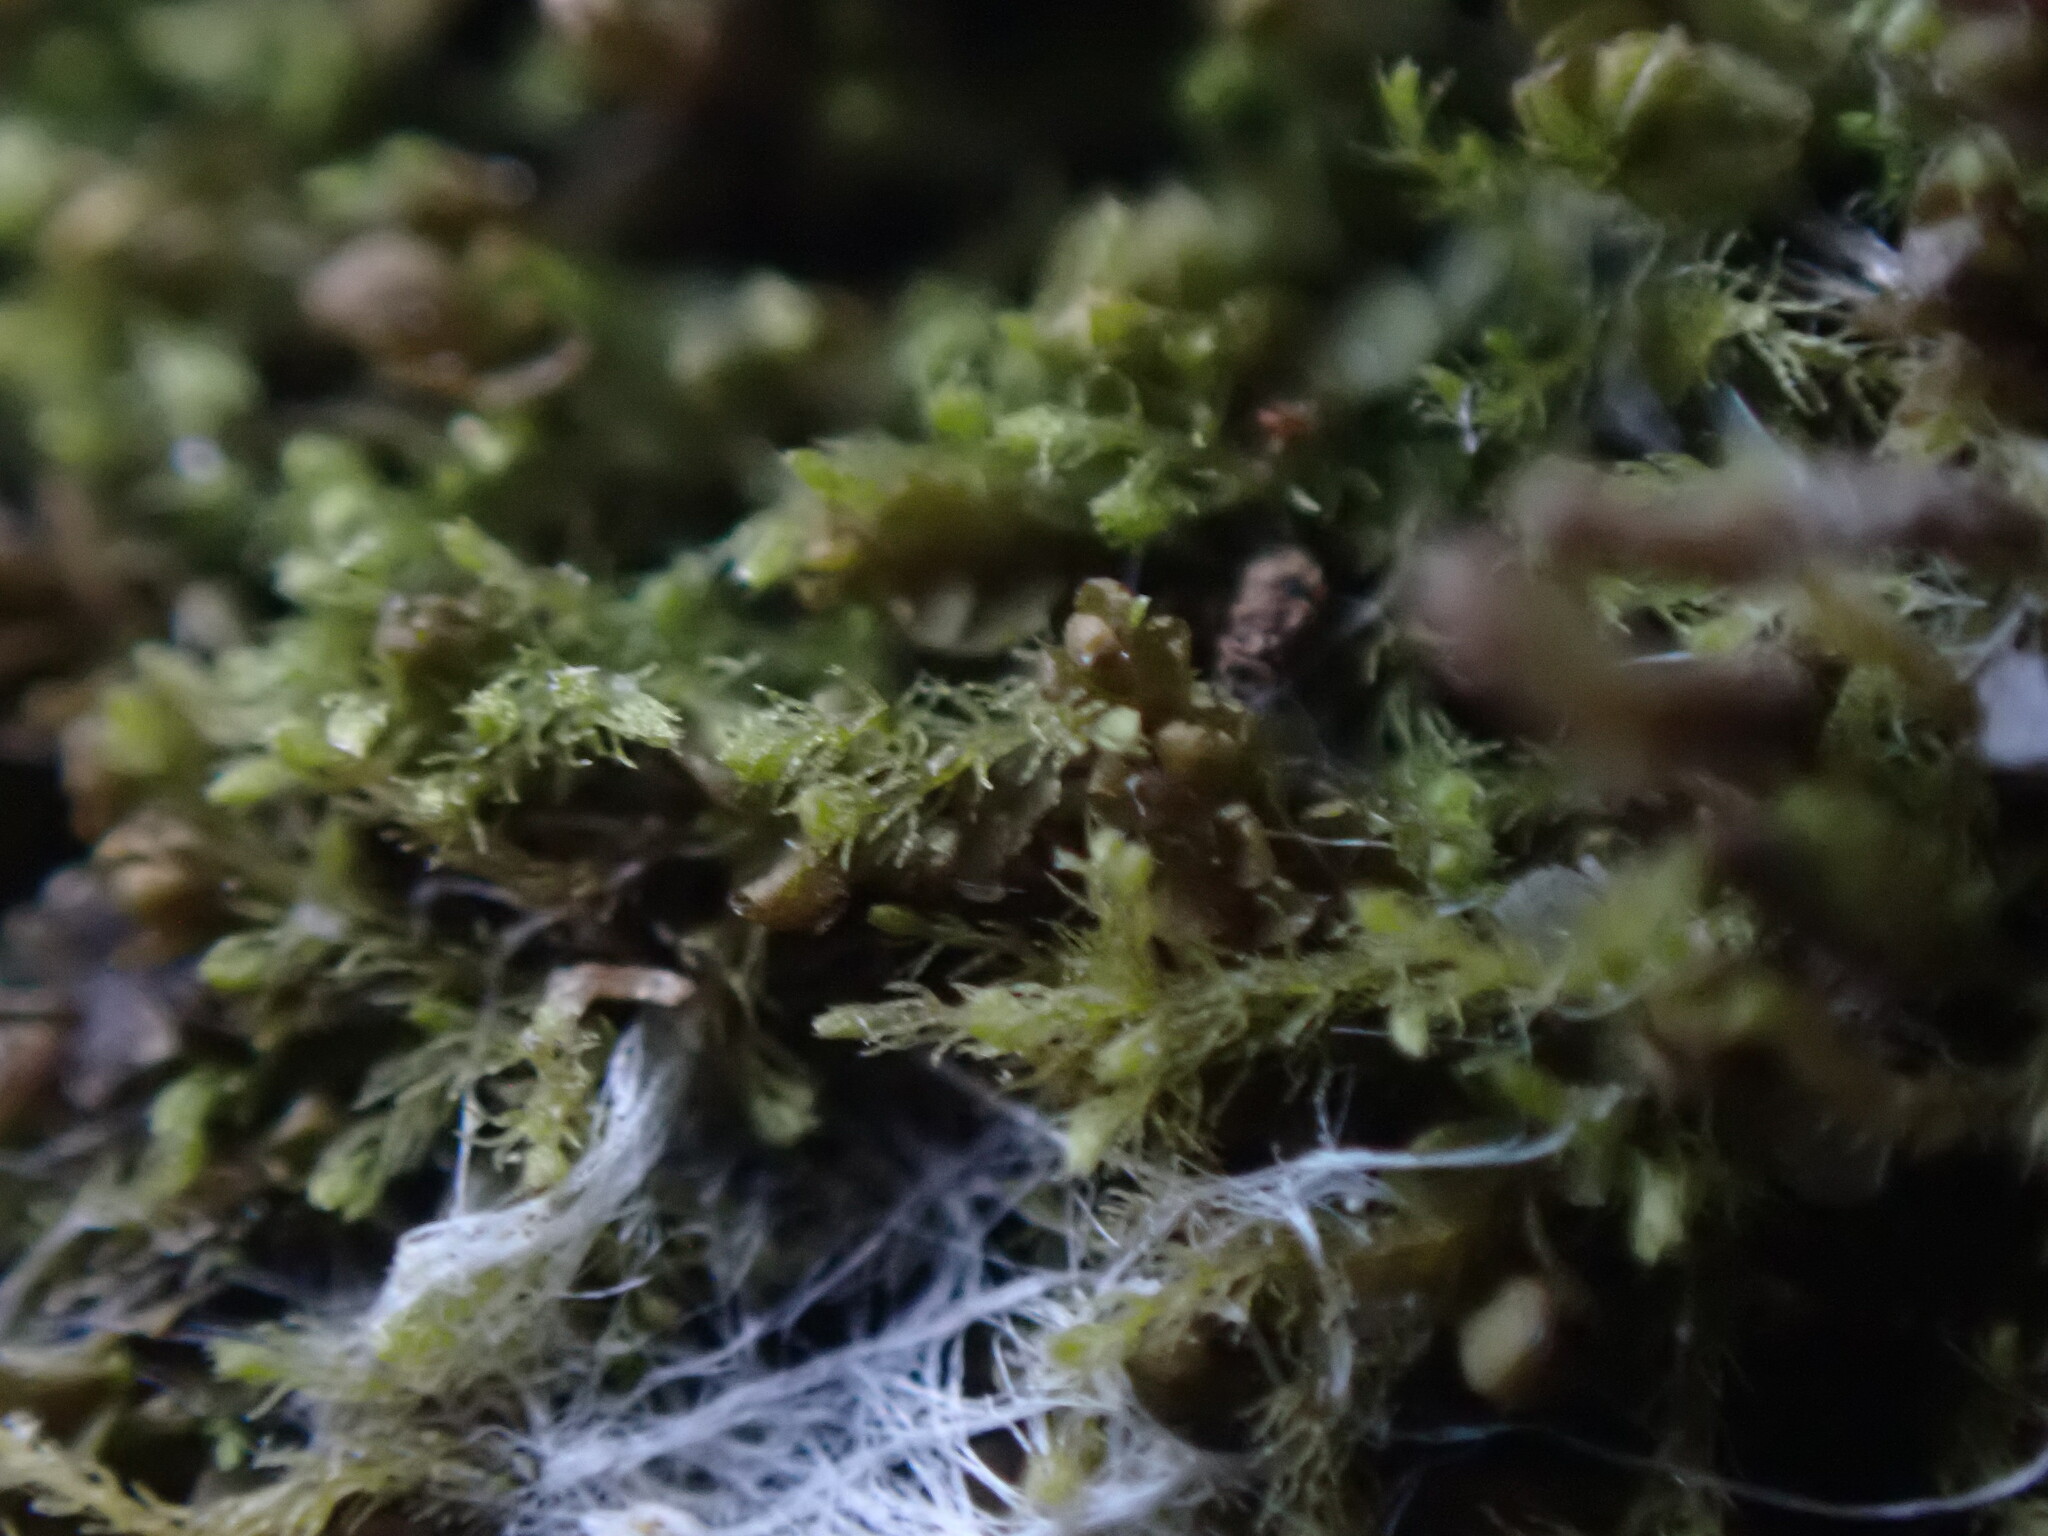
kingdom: Plantae
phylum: Marchantiophyta
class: Jungermanniopsida
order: Jungermanniales
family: Blepharostomataceae
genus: Blepharostoma
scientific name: Blepharostoma trichophyllum
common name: Hairy threadwort
